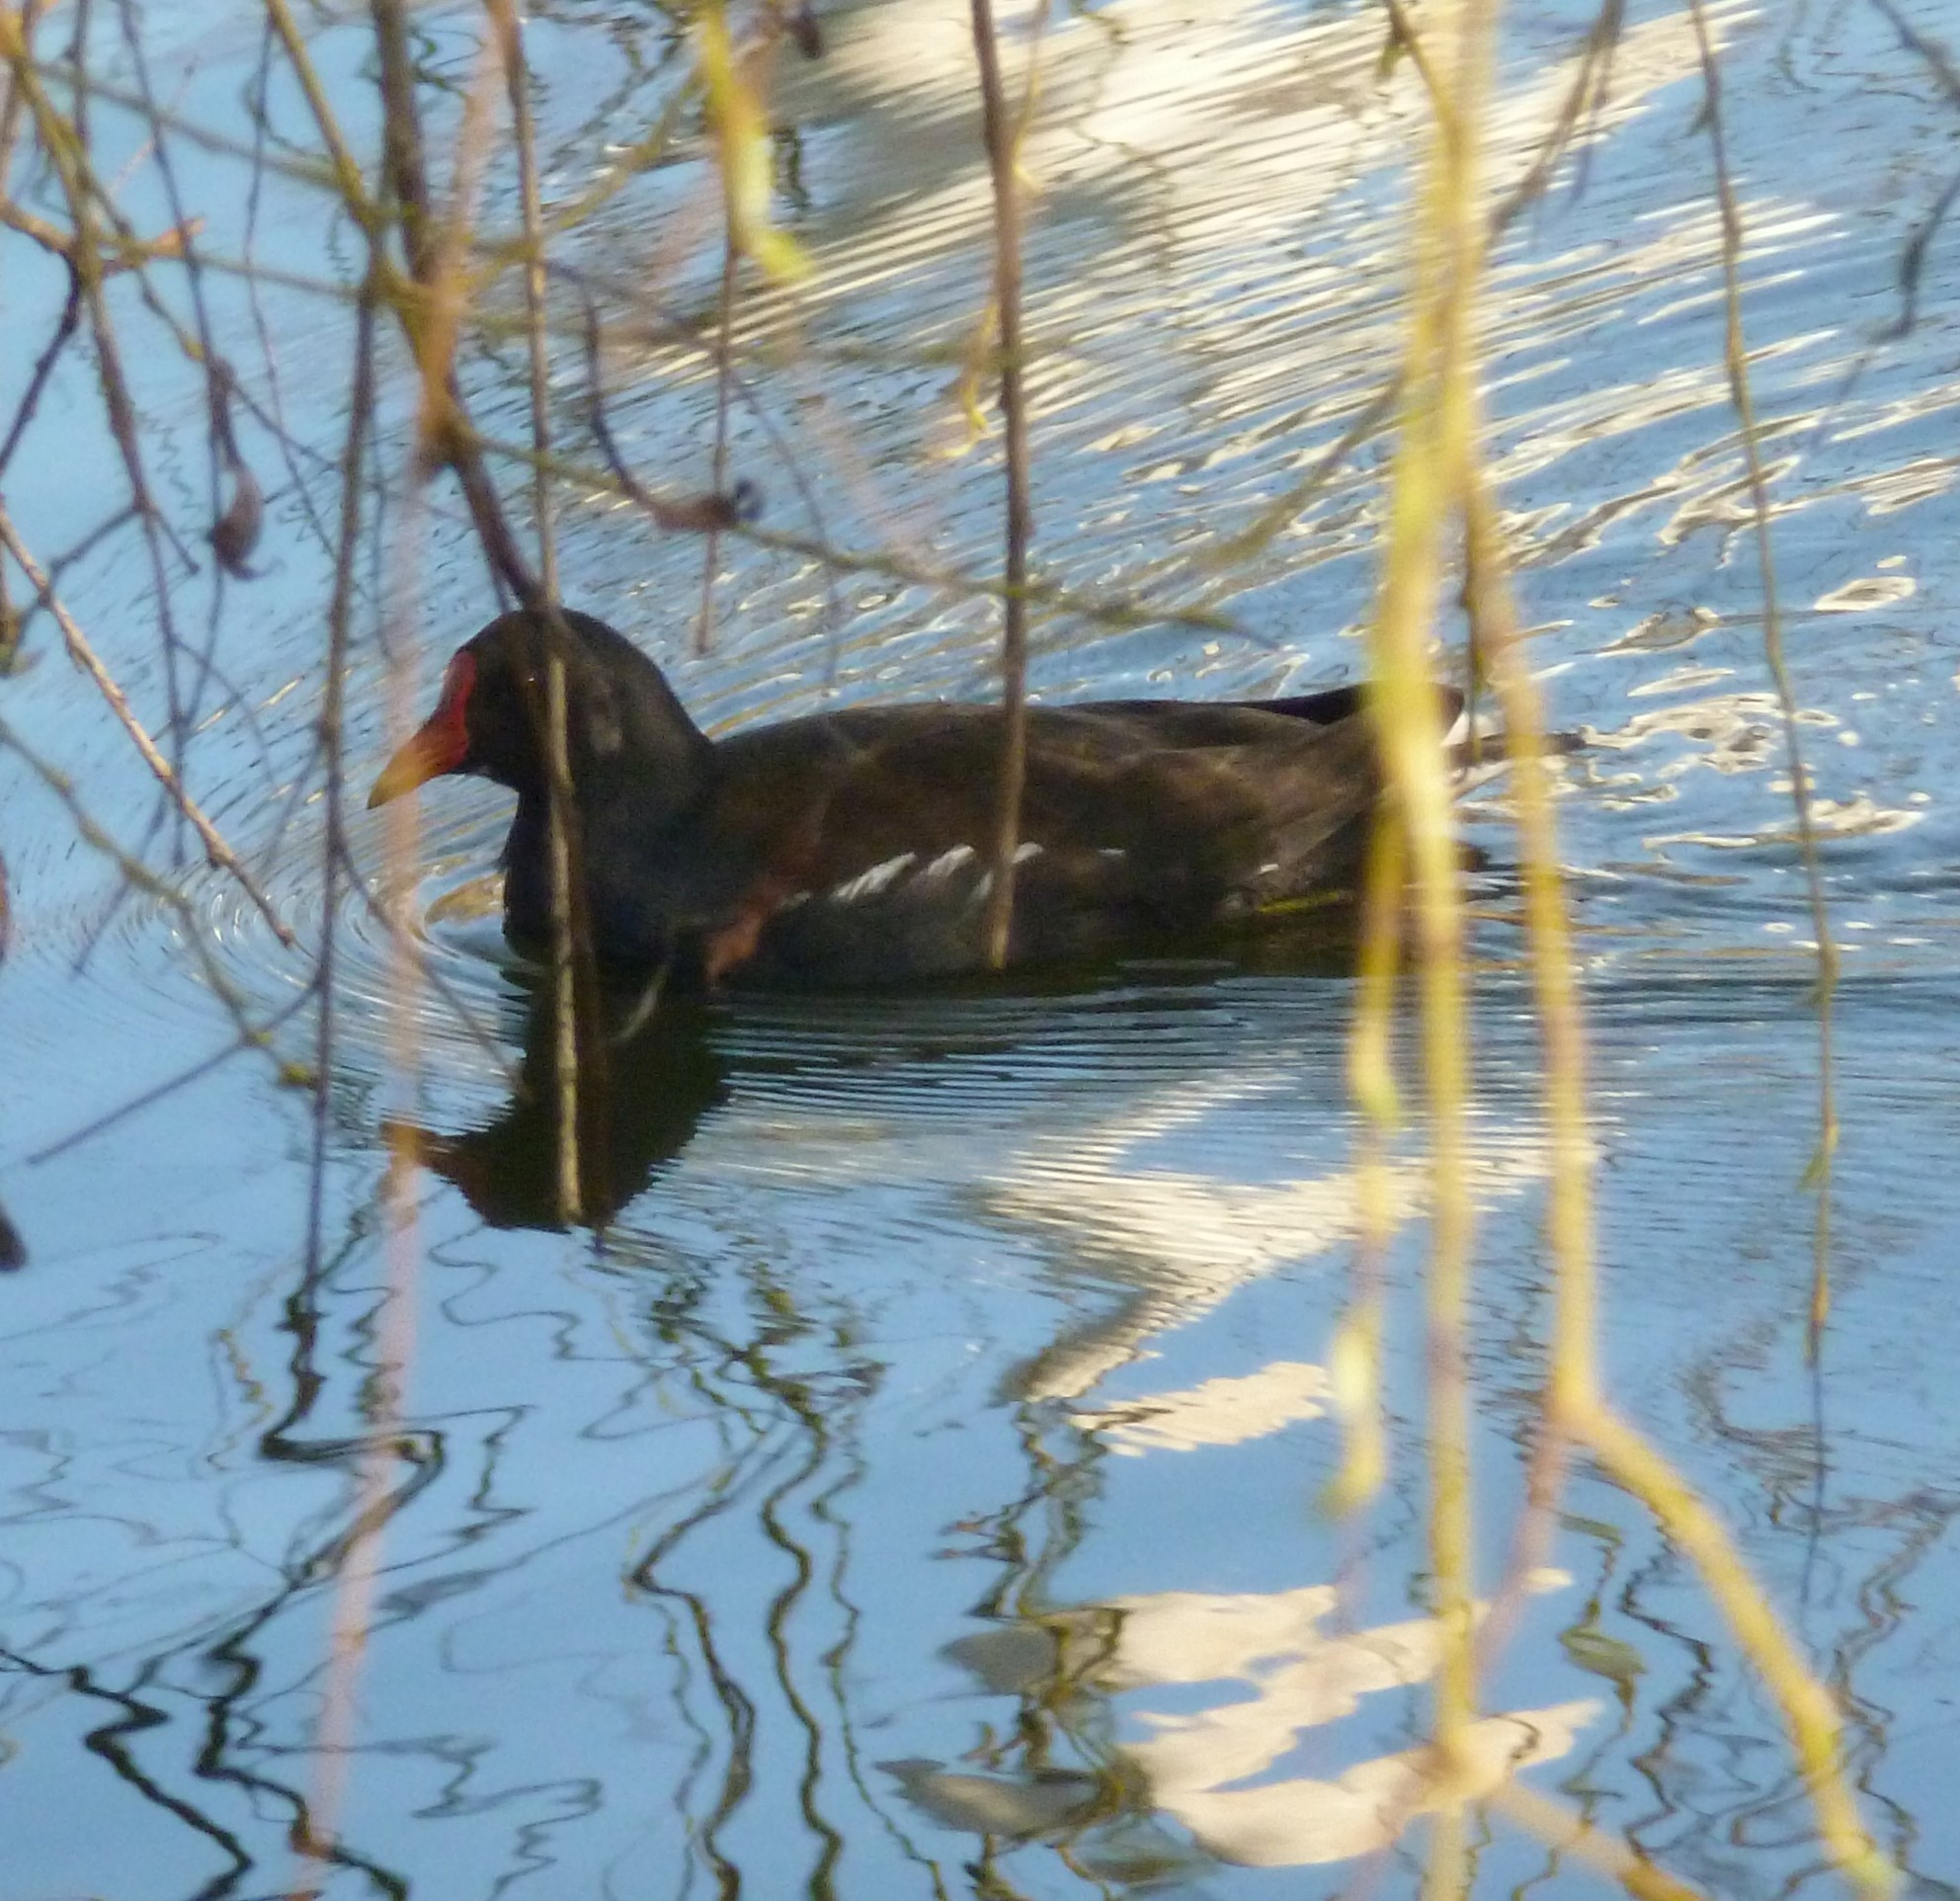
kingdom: Animalia
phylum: Chordata
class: Aves
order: Gruiformes
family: Rallidae
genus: Gallinula
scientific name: Gallinula chloropus
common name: Common moorhen
